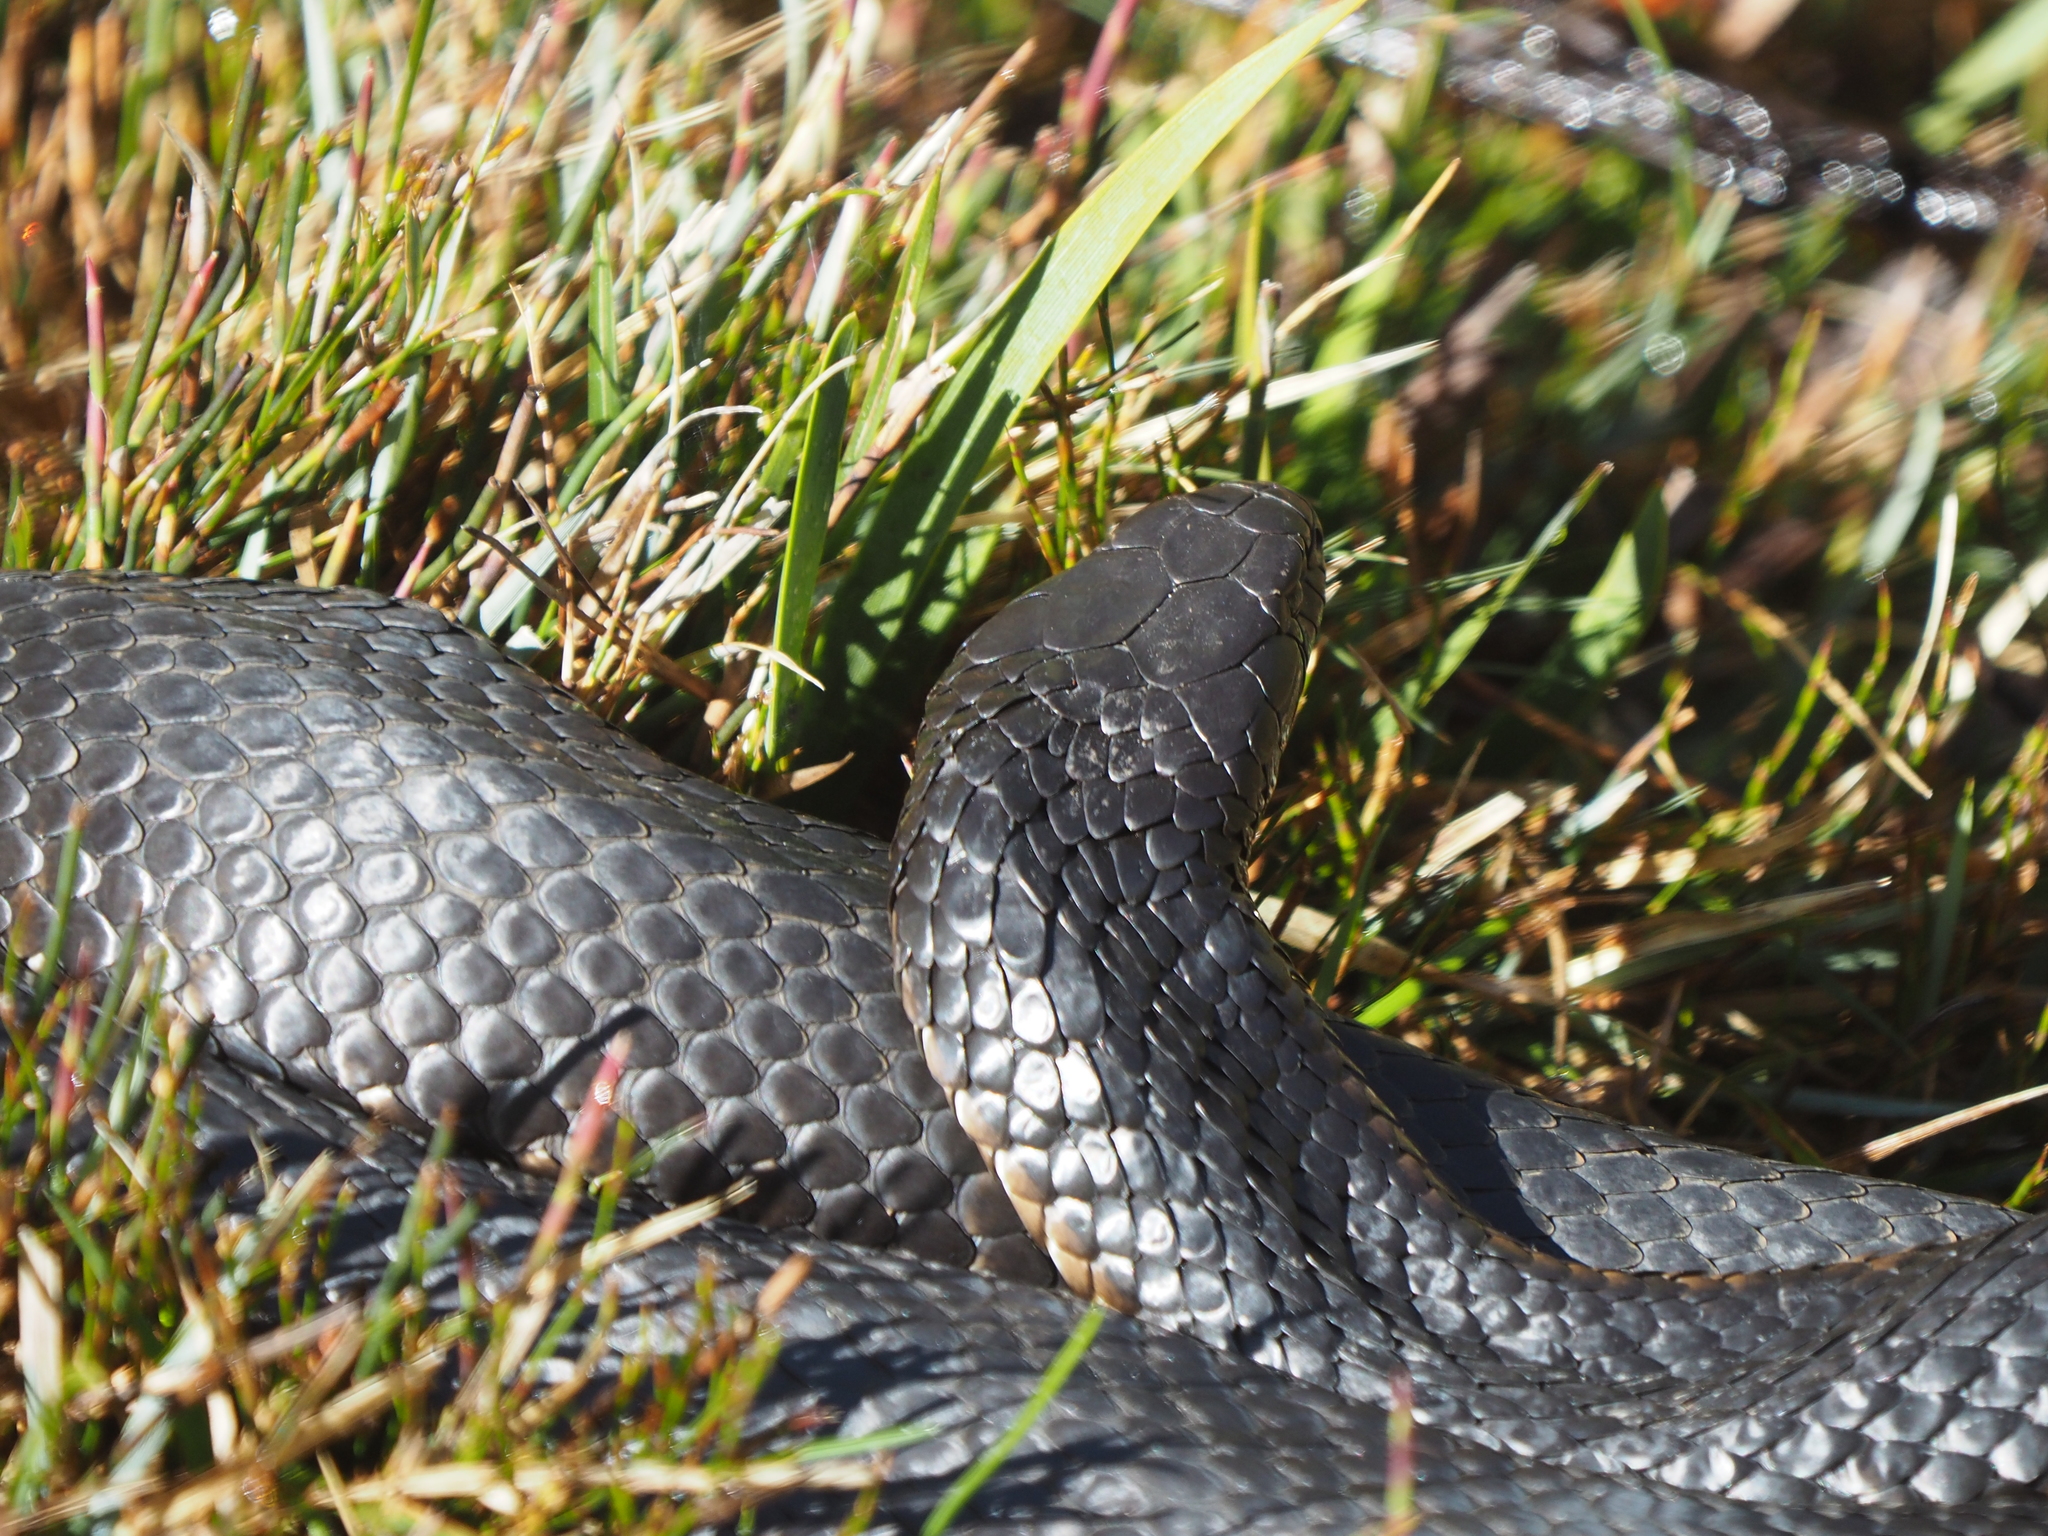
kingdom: Animalia
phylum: Chordata
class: Squamata
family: Elapidae
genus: Notechis
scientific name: Notechis scutatus
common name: Mainland tiger snake
